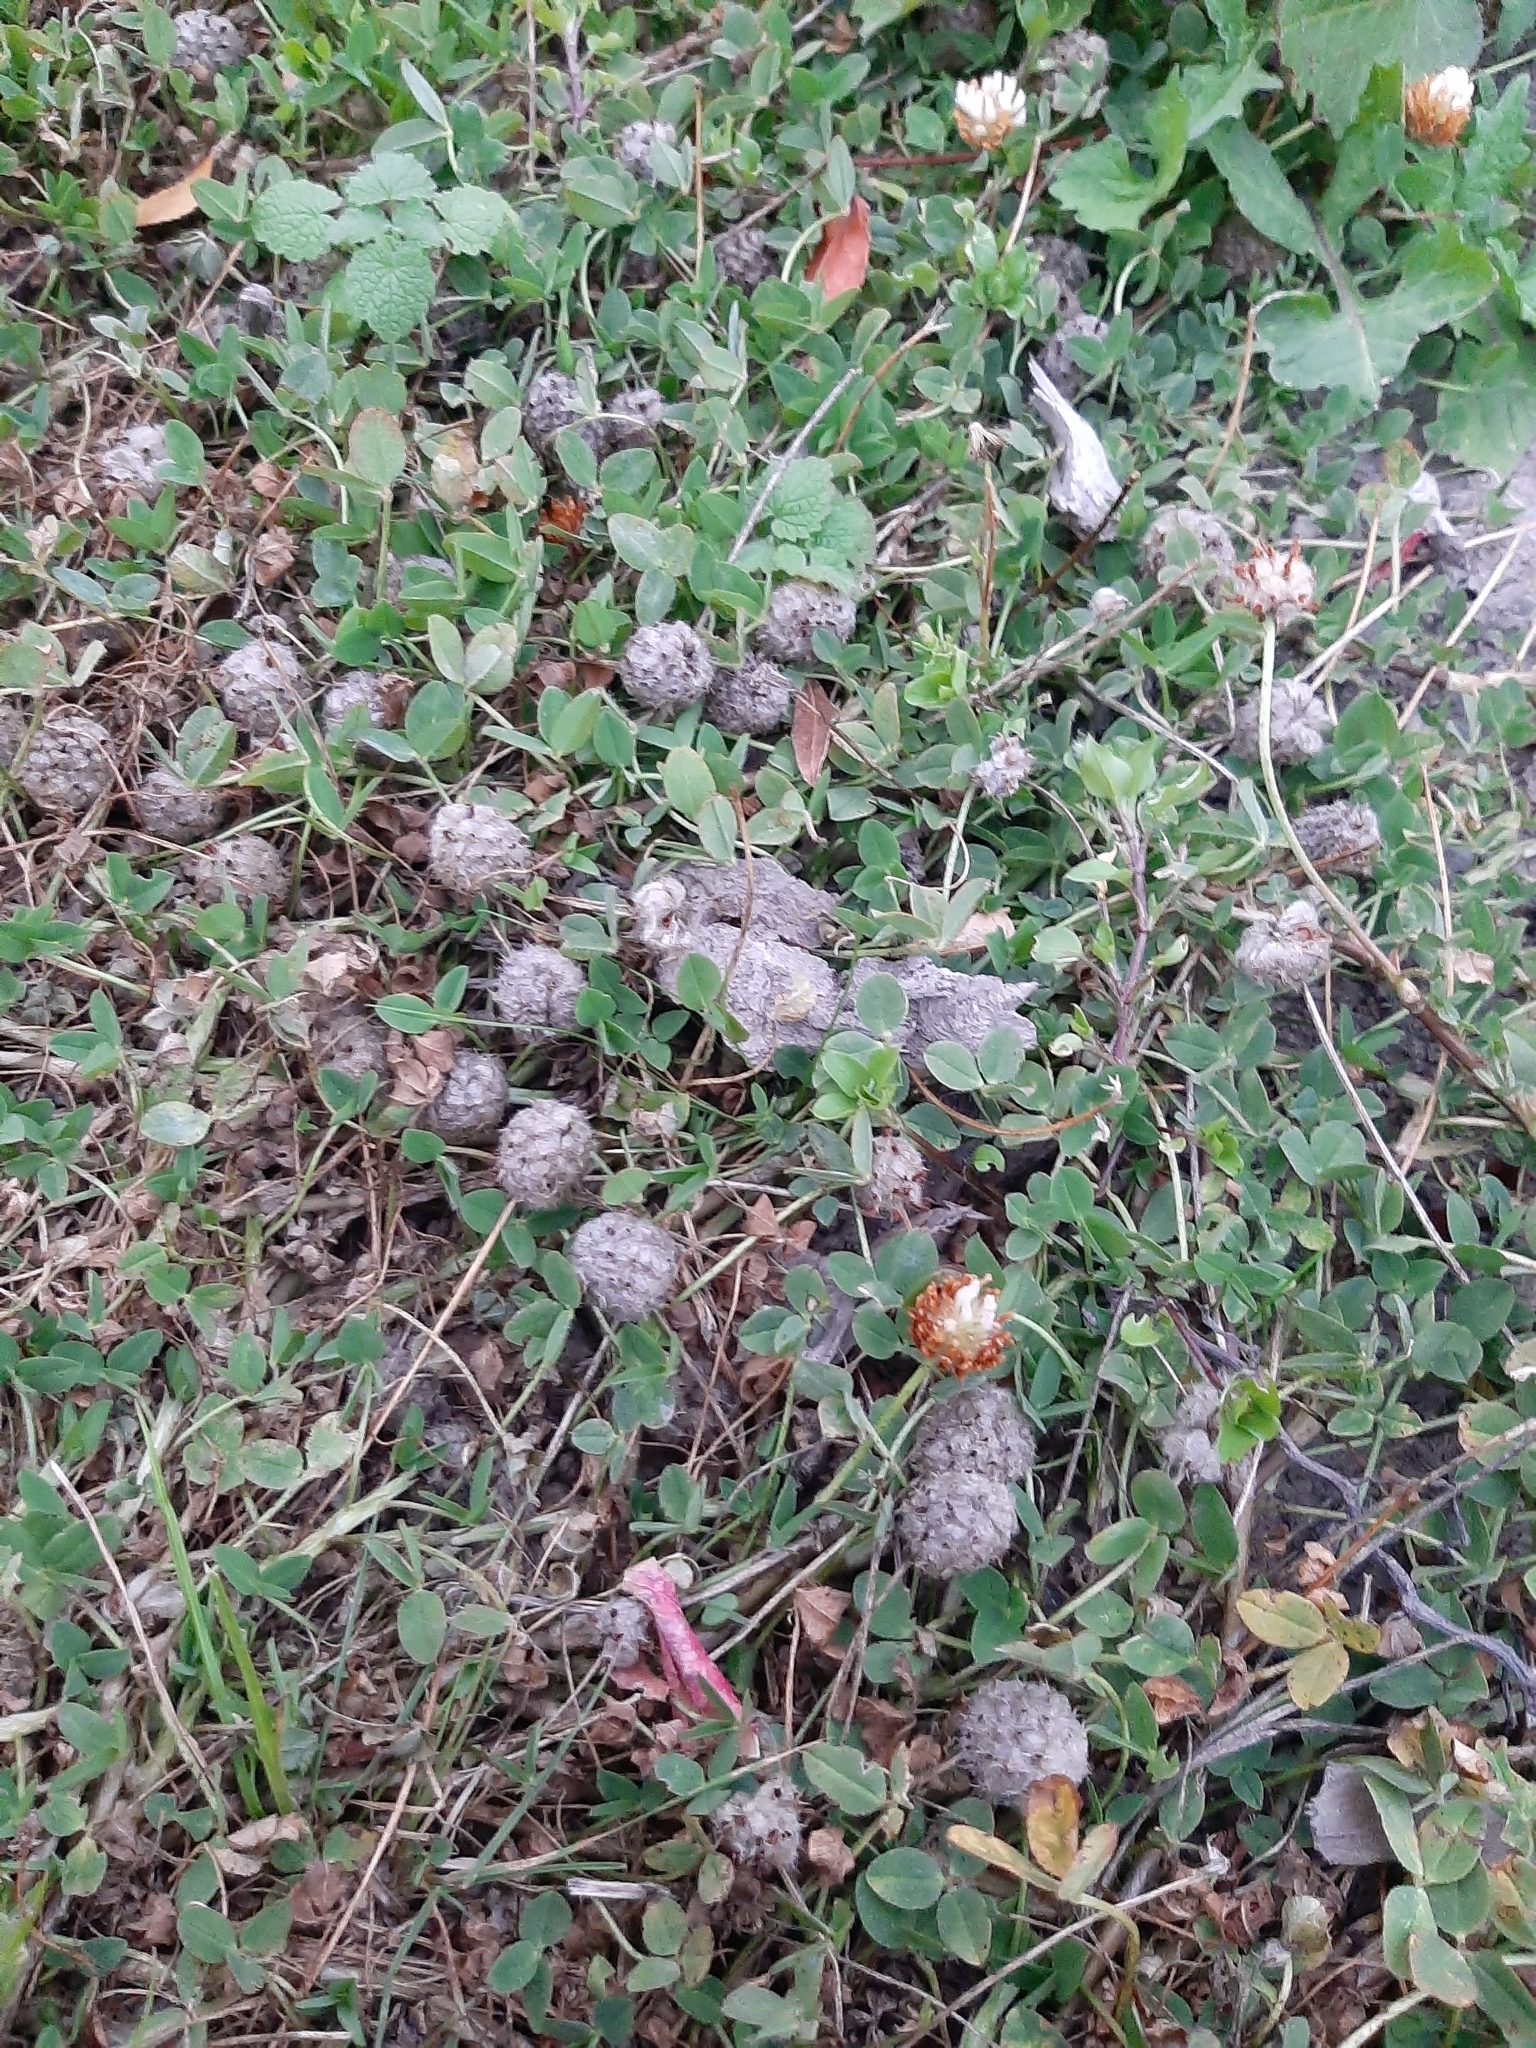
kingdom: Plantae
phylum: Tracheophyta
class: Magnoliopsida
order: Fabales
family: Fabaceae
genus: Trifolium
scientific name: Trifolium fragiferum
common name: Strawberry clover
